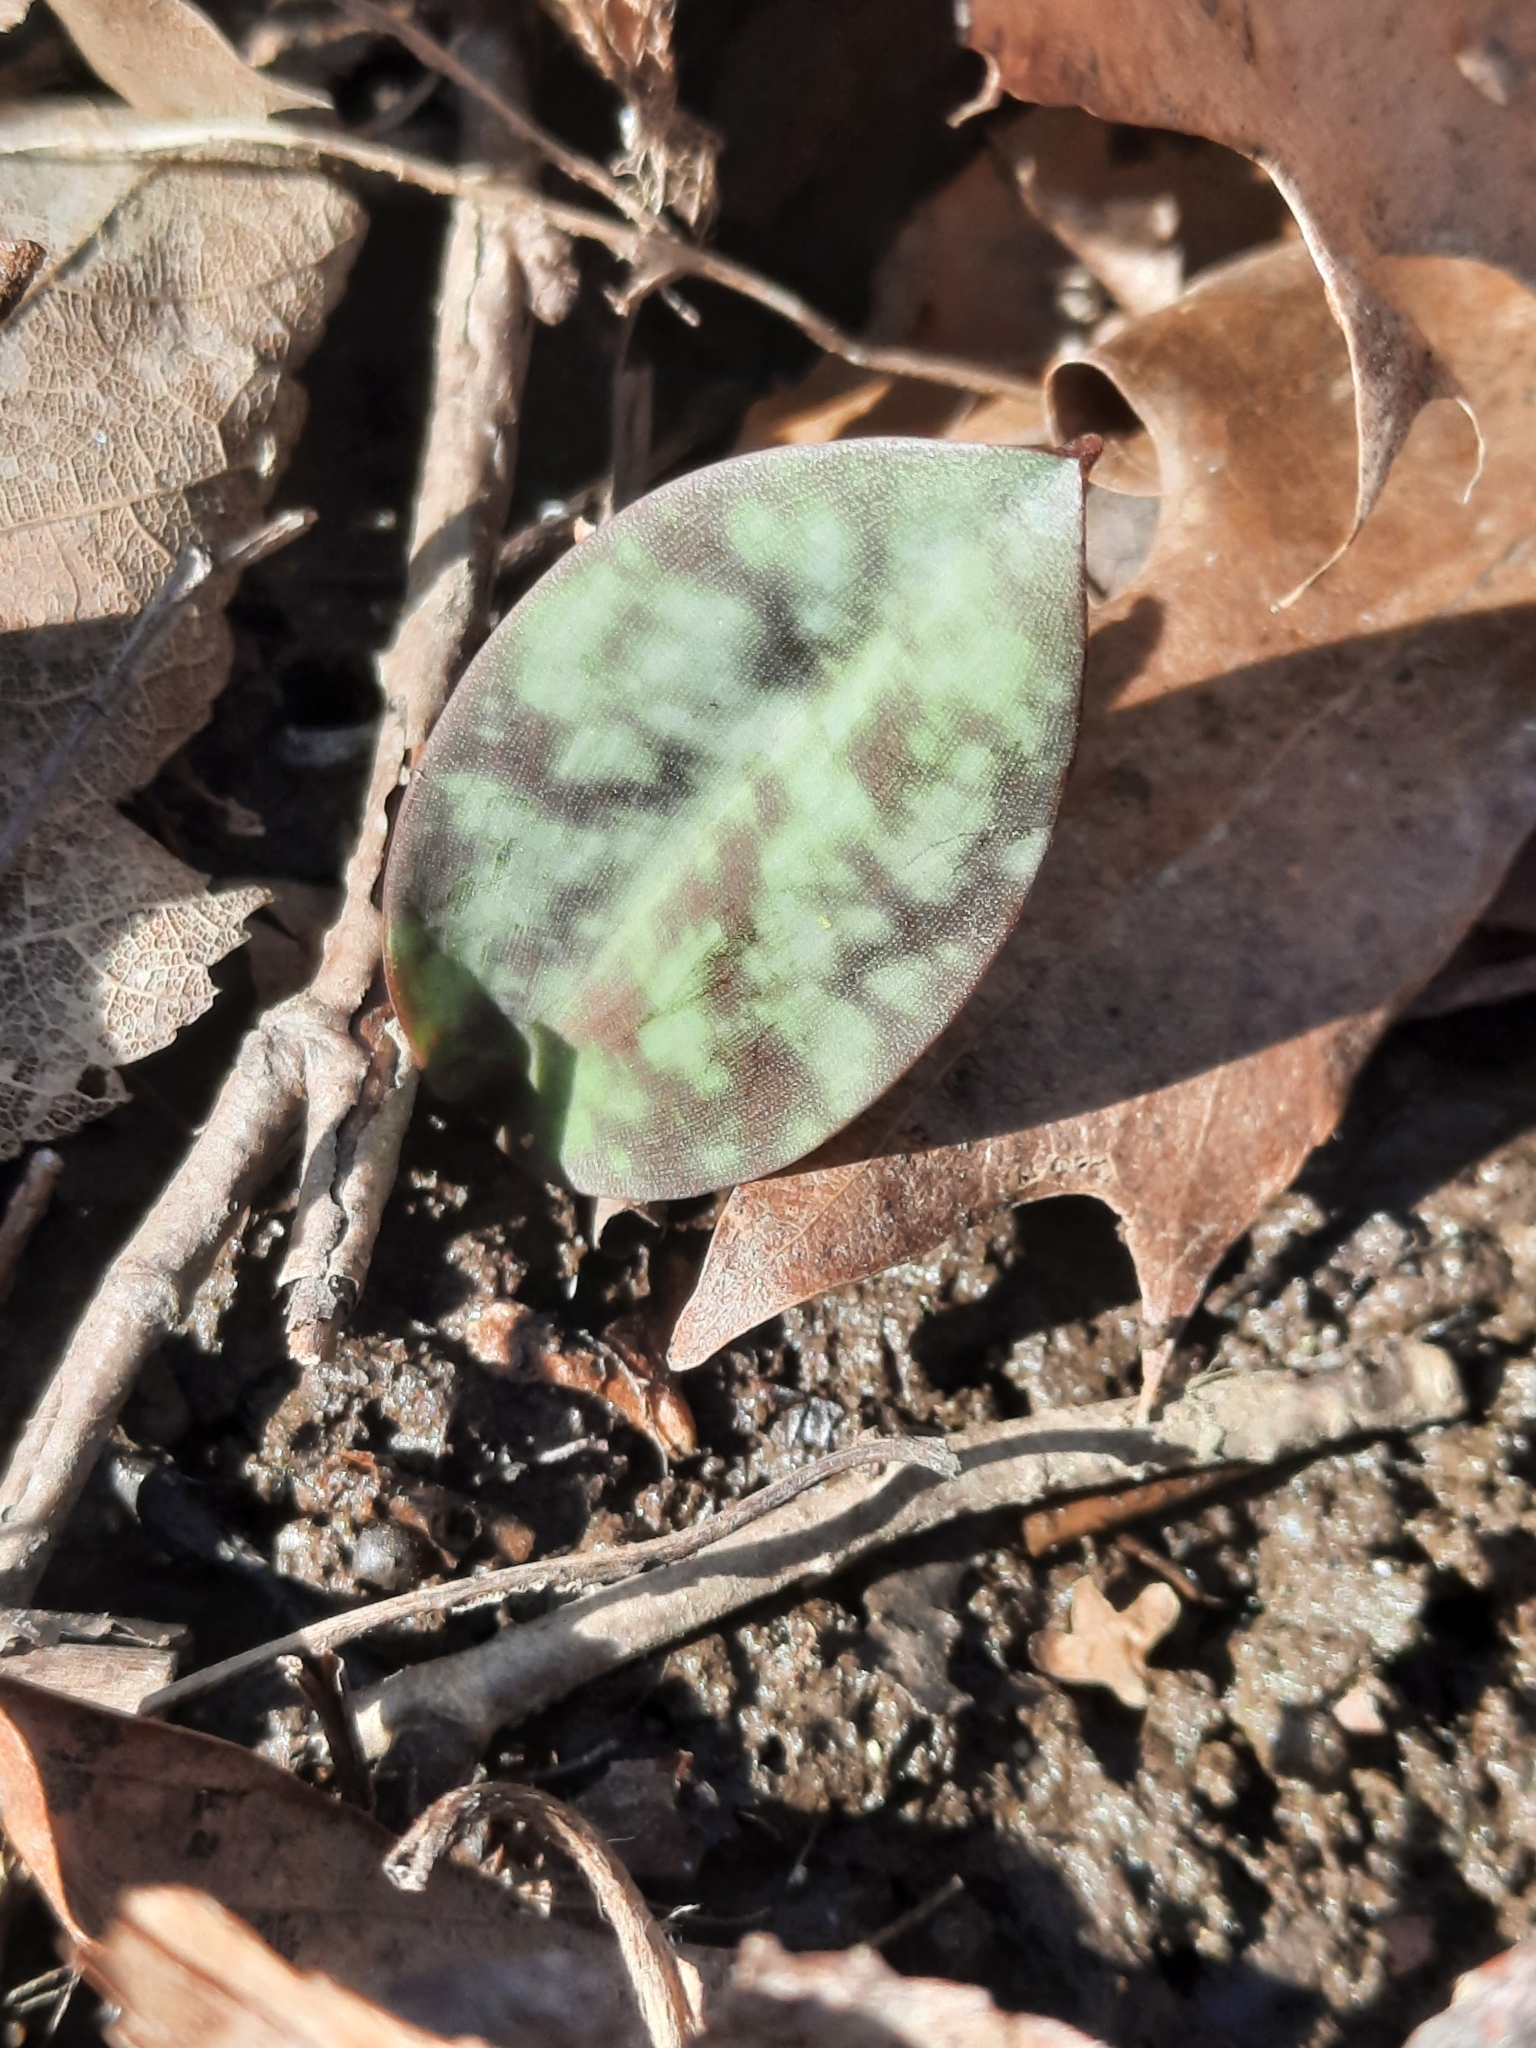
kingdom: Plantae
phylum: Tracheophyta
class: Liliopsida
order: Liliales
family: Liliaceae
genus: Erythronium
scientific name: Erythronium americanum
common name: Yellow adder's-tongue
